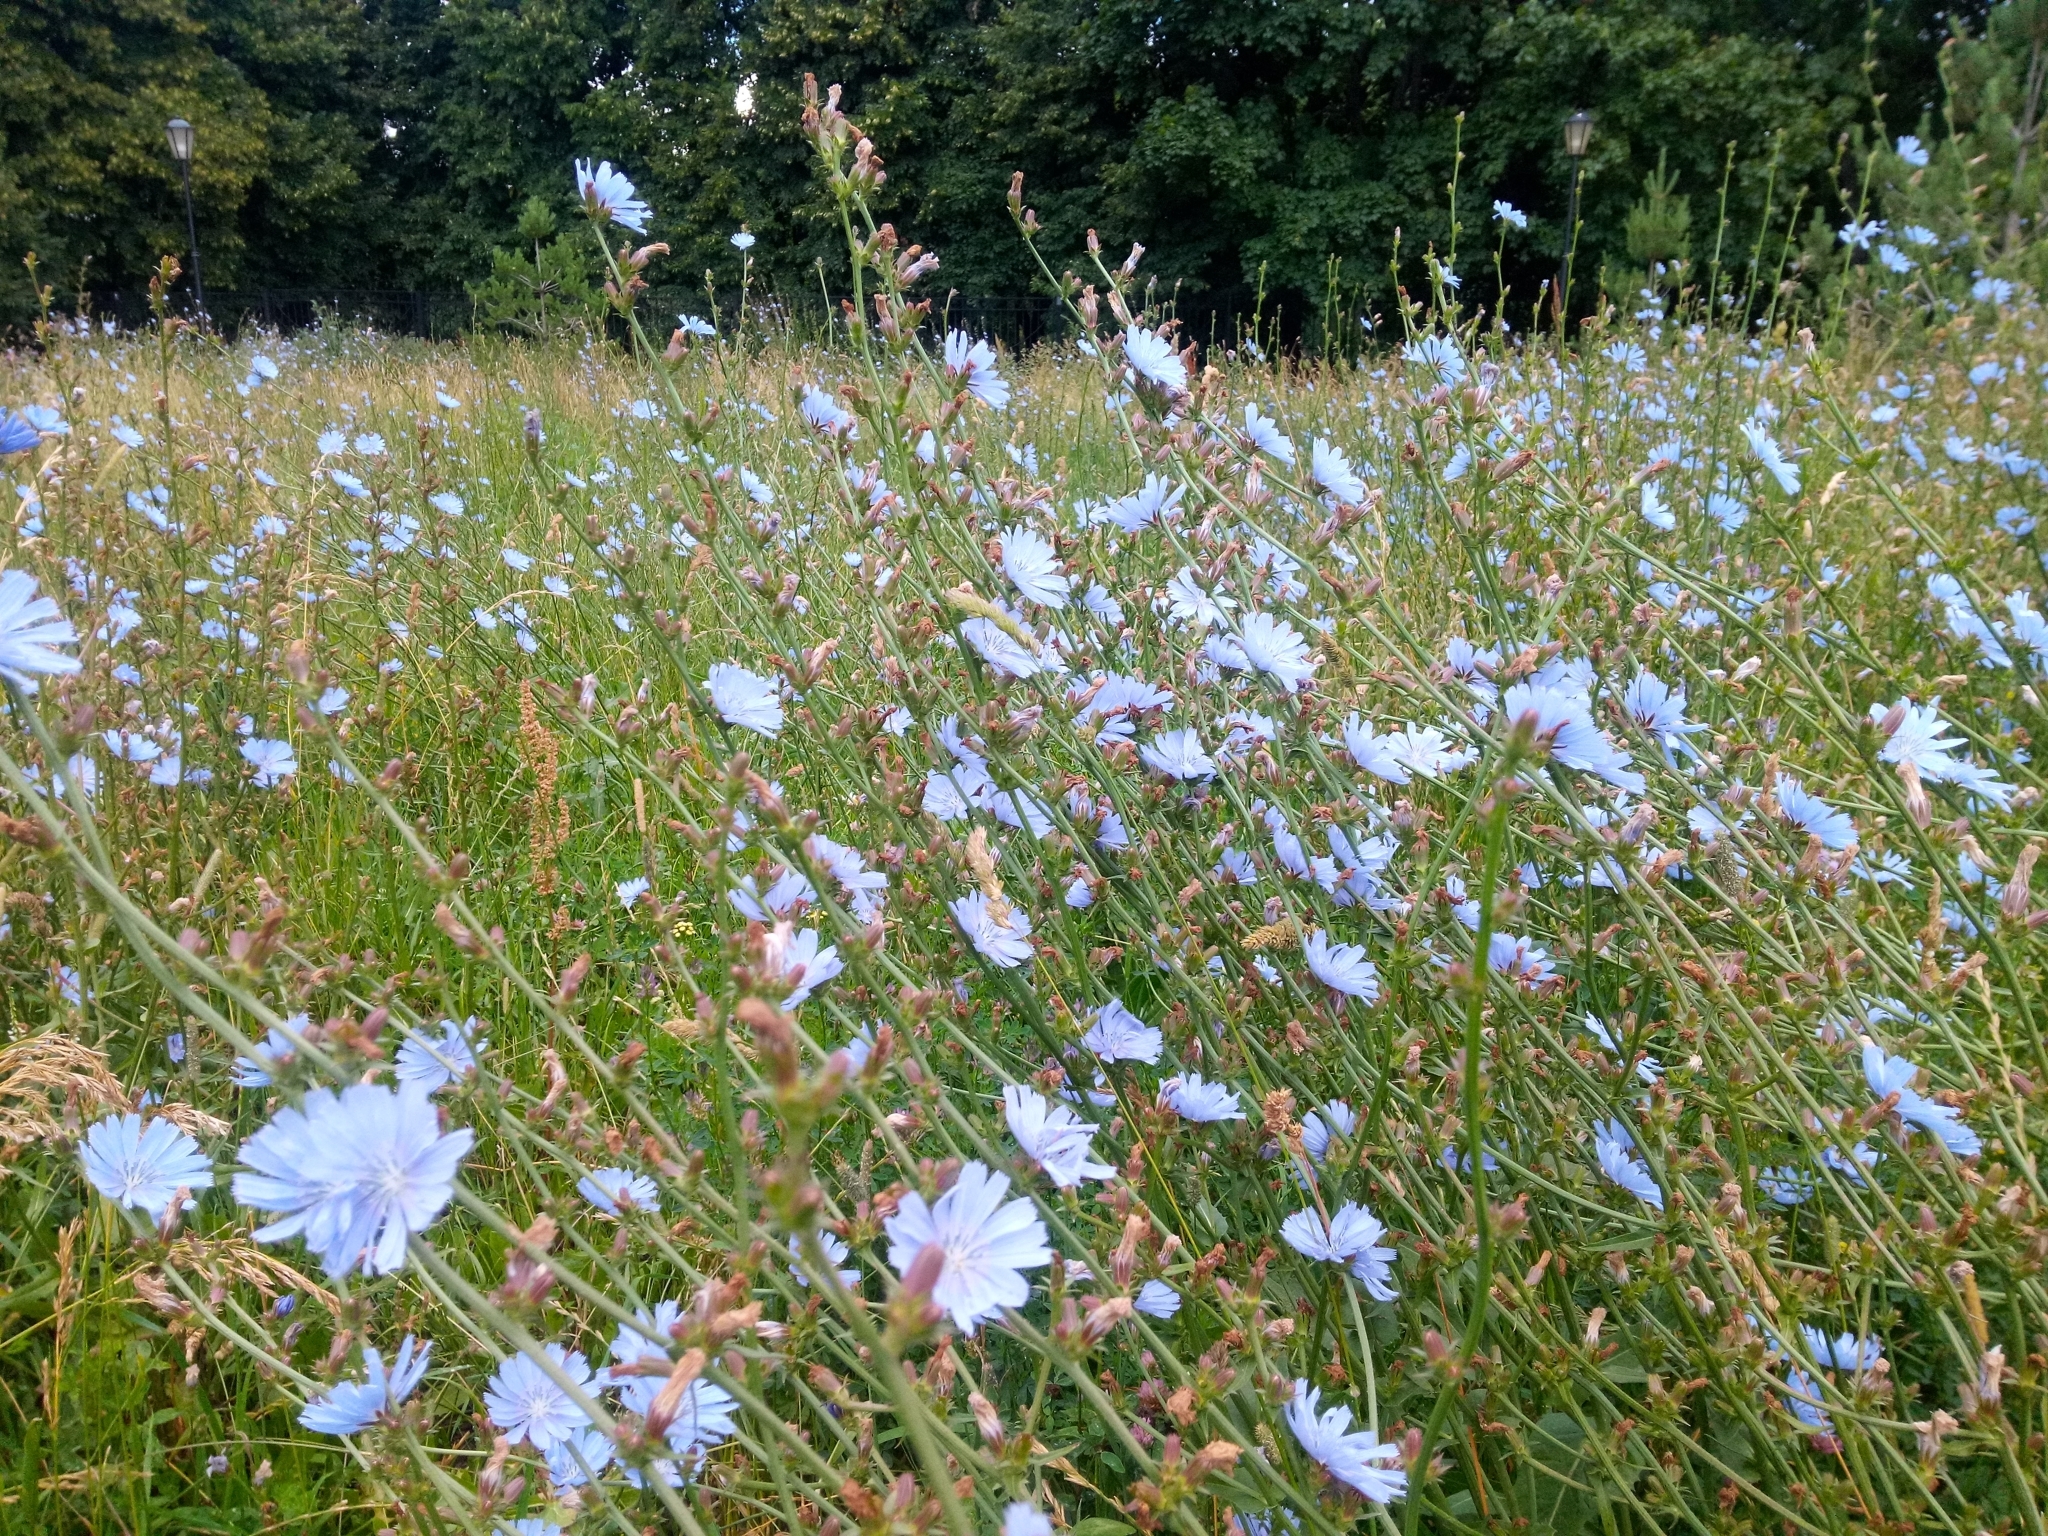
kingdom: Plantae
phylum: Tracheophyta
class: Magnoliopsida
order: Asterales
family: Asteraceae
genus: Cichorium
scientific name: Cichorium intybus
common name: Chicory
